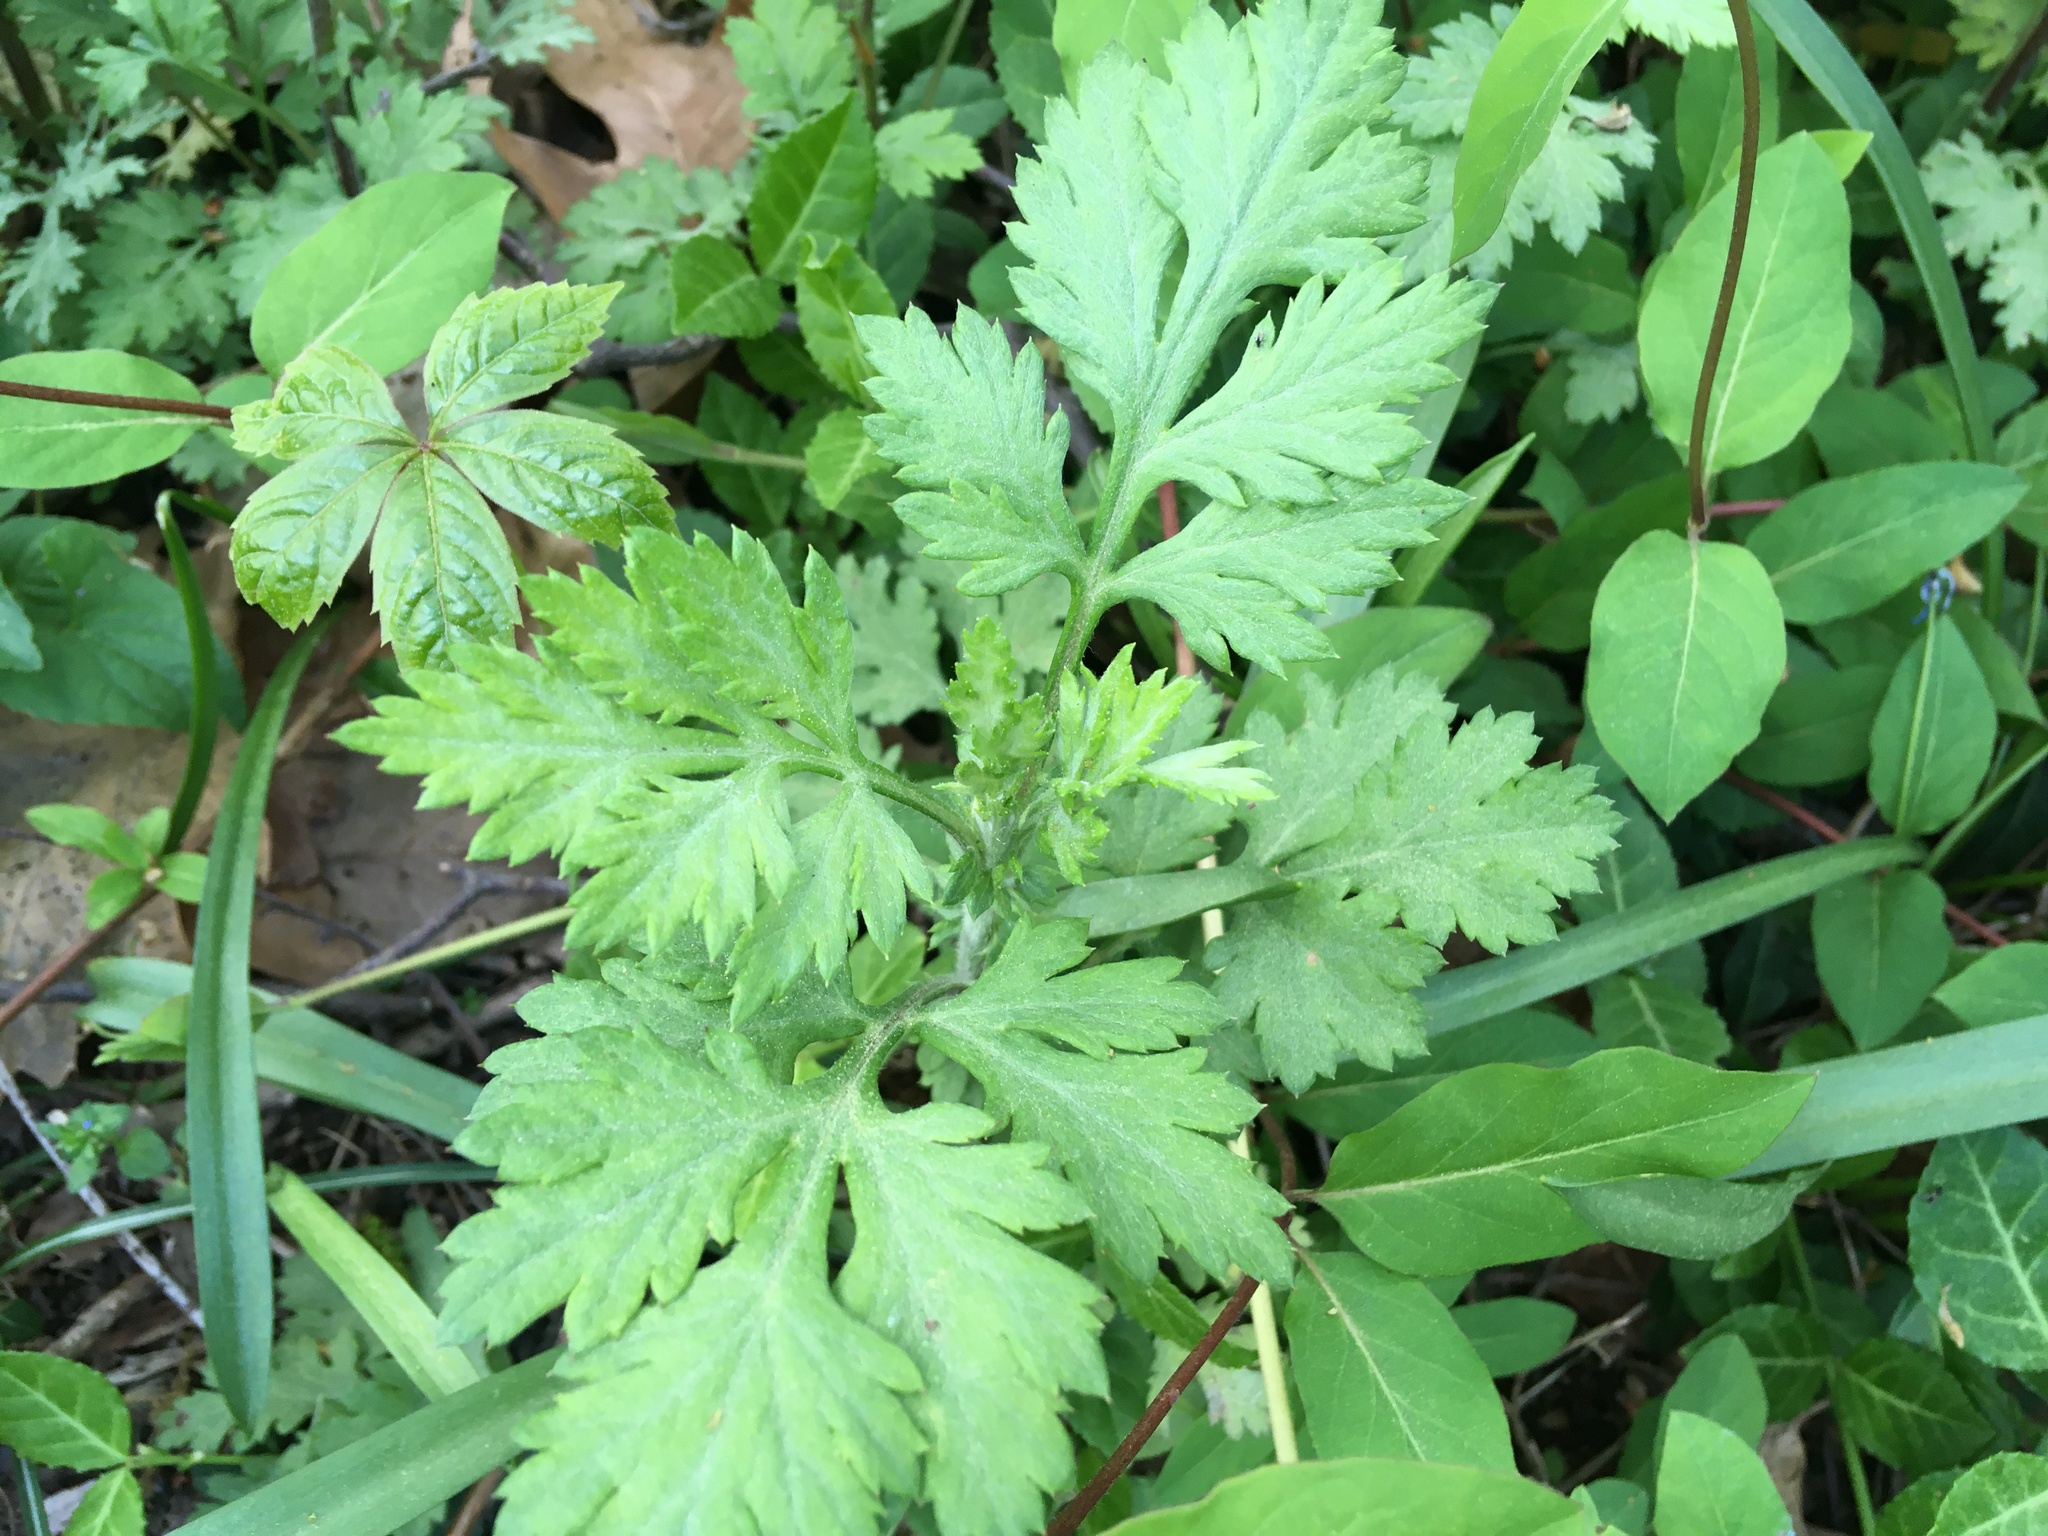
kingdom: Plantae
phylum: Tracheophyta
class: Magnoliopsida
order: Asterales
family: Asteraceae
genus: Artemisia
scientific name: Artemisia vulgaris
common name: Mugwort
